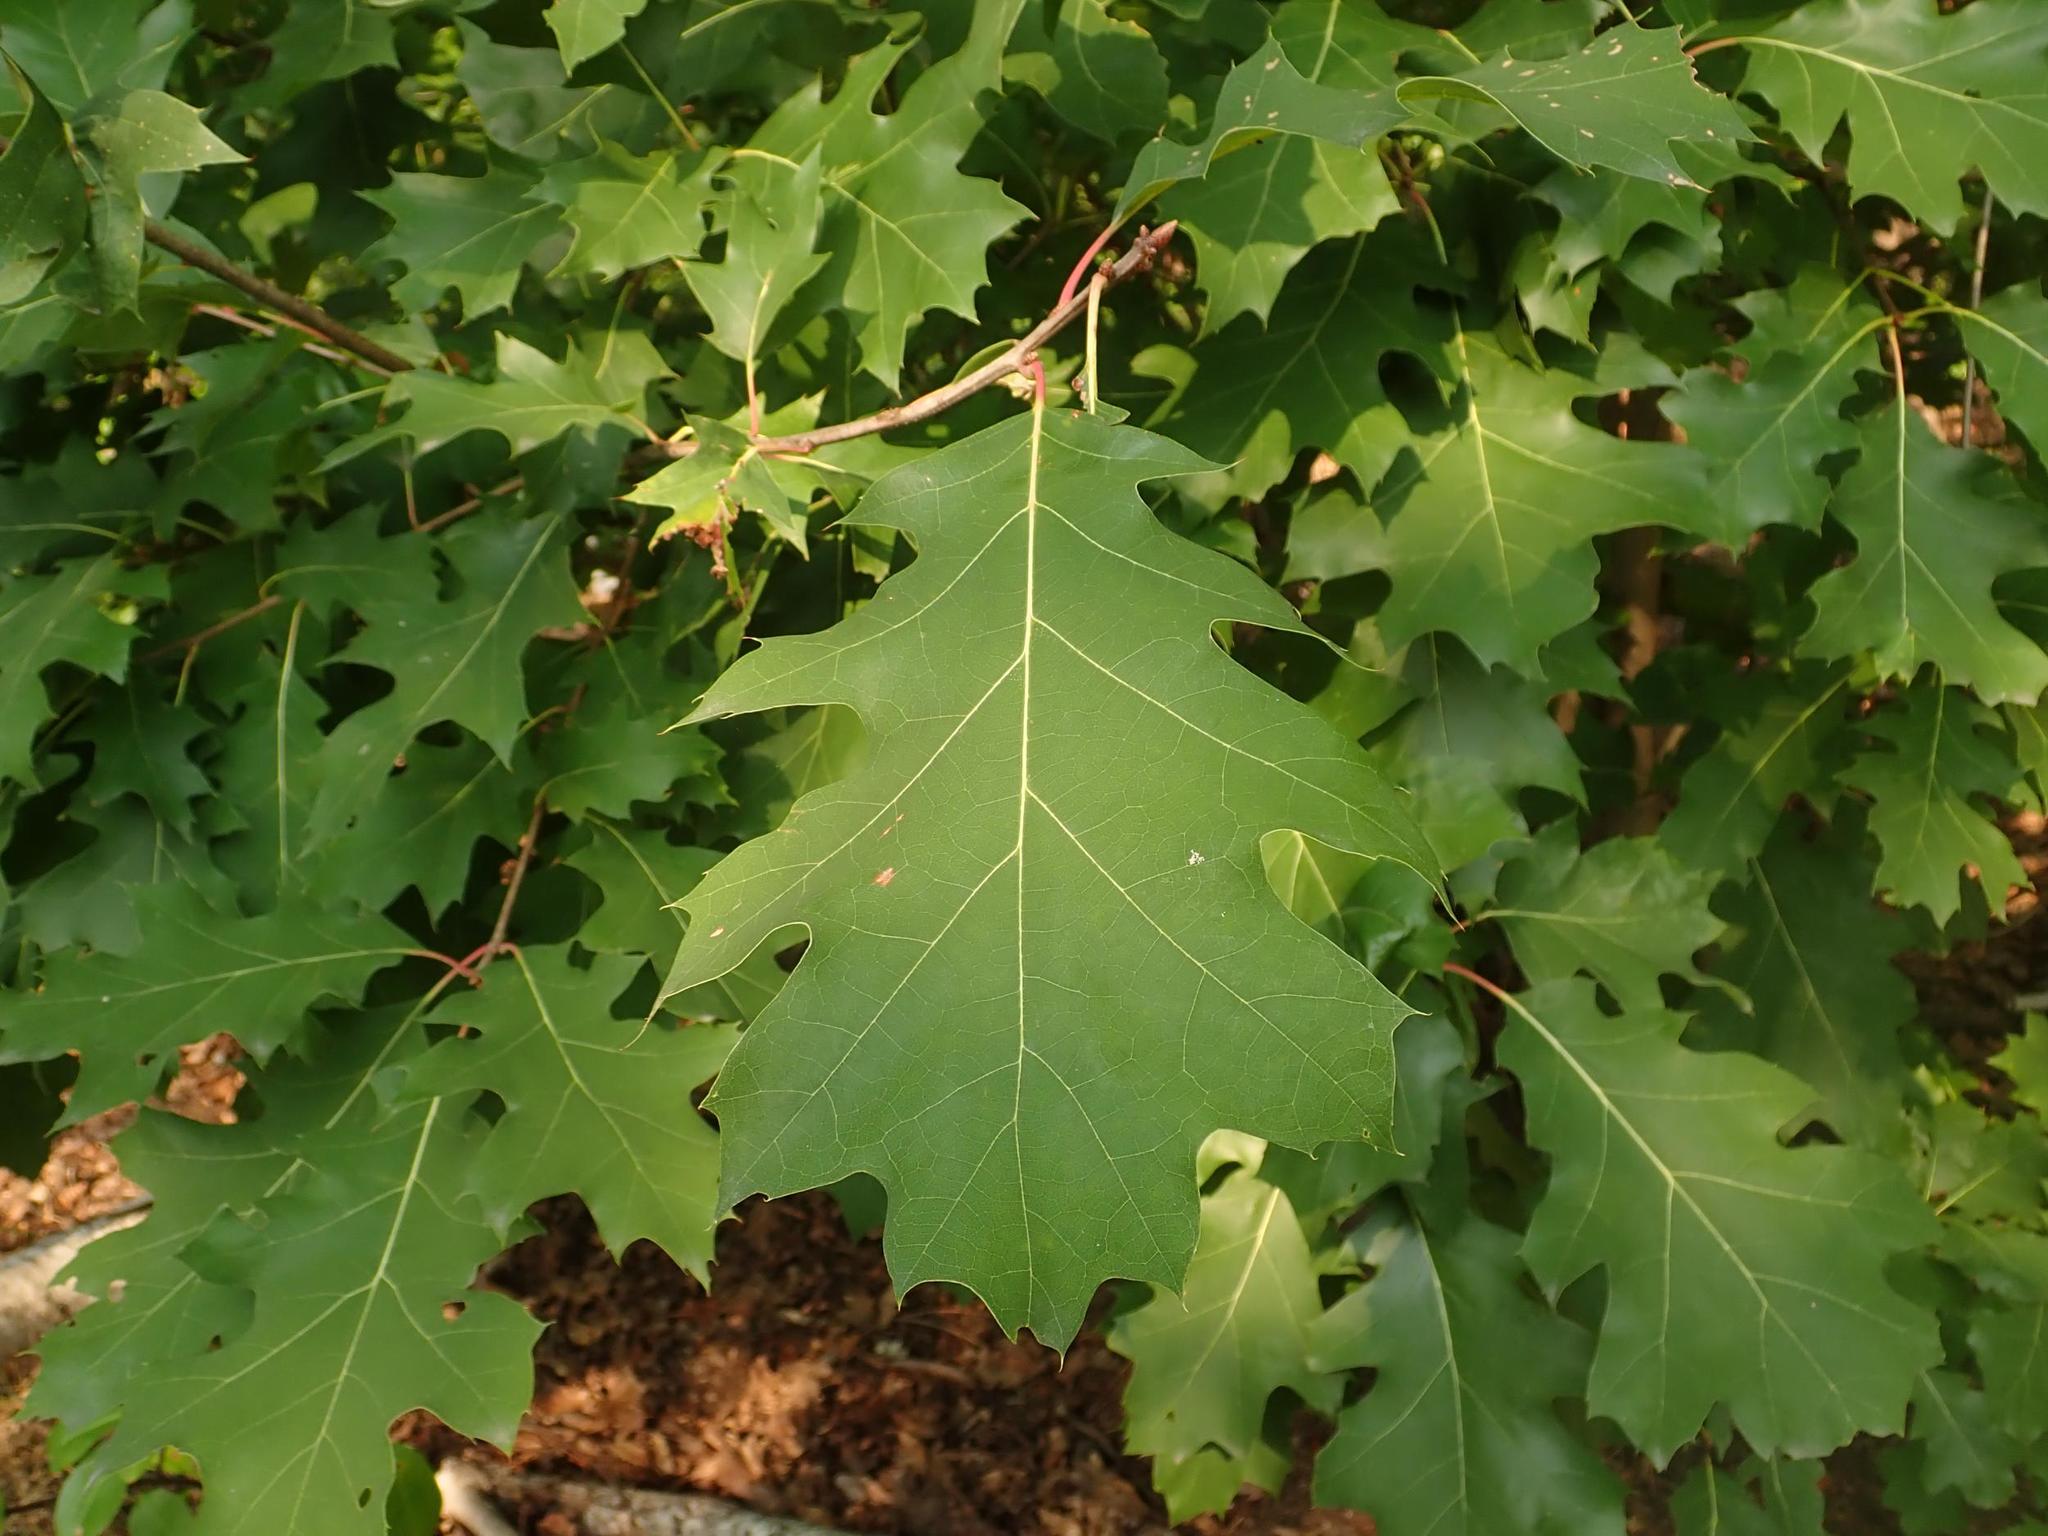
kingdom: Plantae
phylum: Tracheophyta
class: Magnoliopsida
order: Fagales
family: Fagaceae
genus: Quercus
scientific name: Quercus rubra
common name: Red oak
